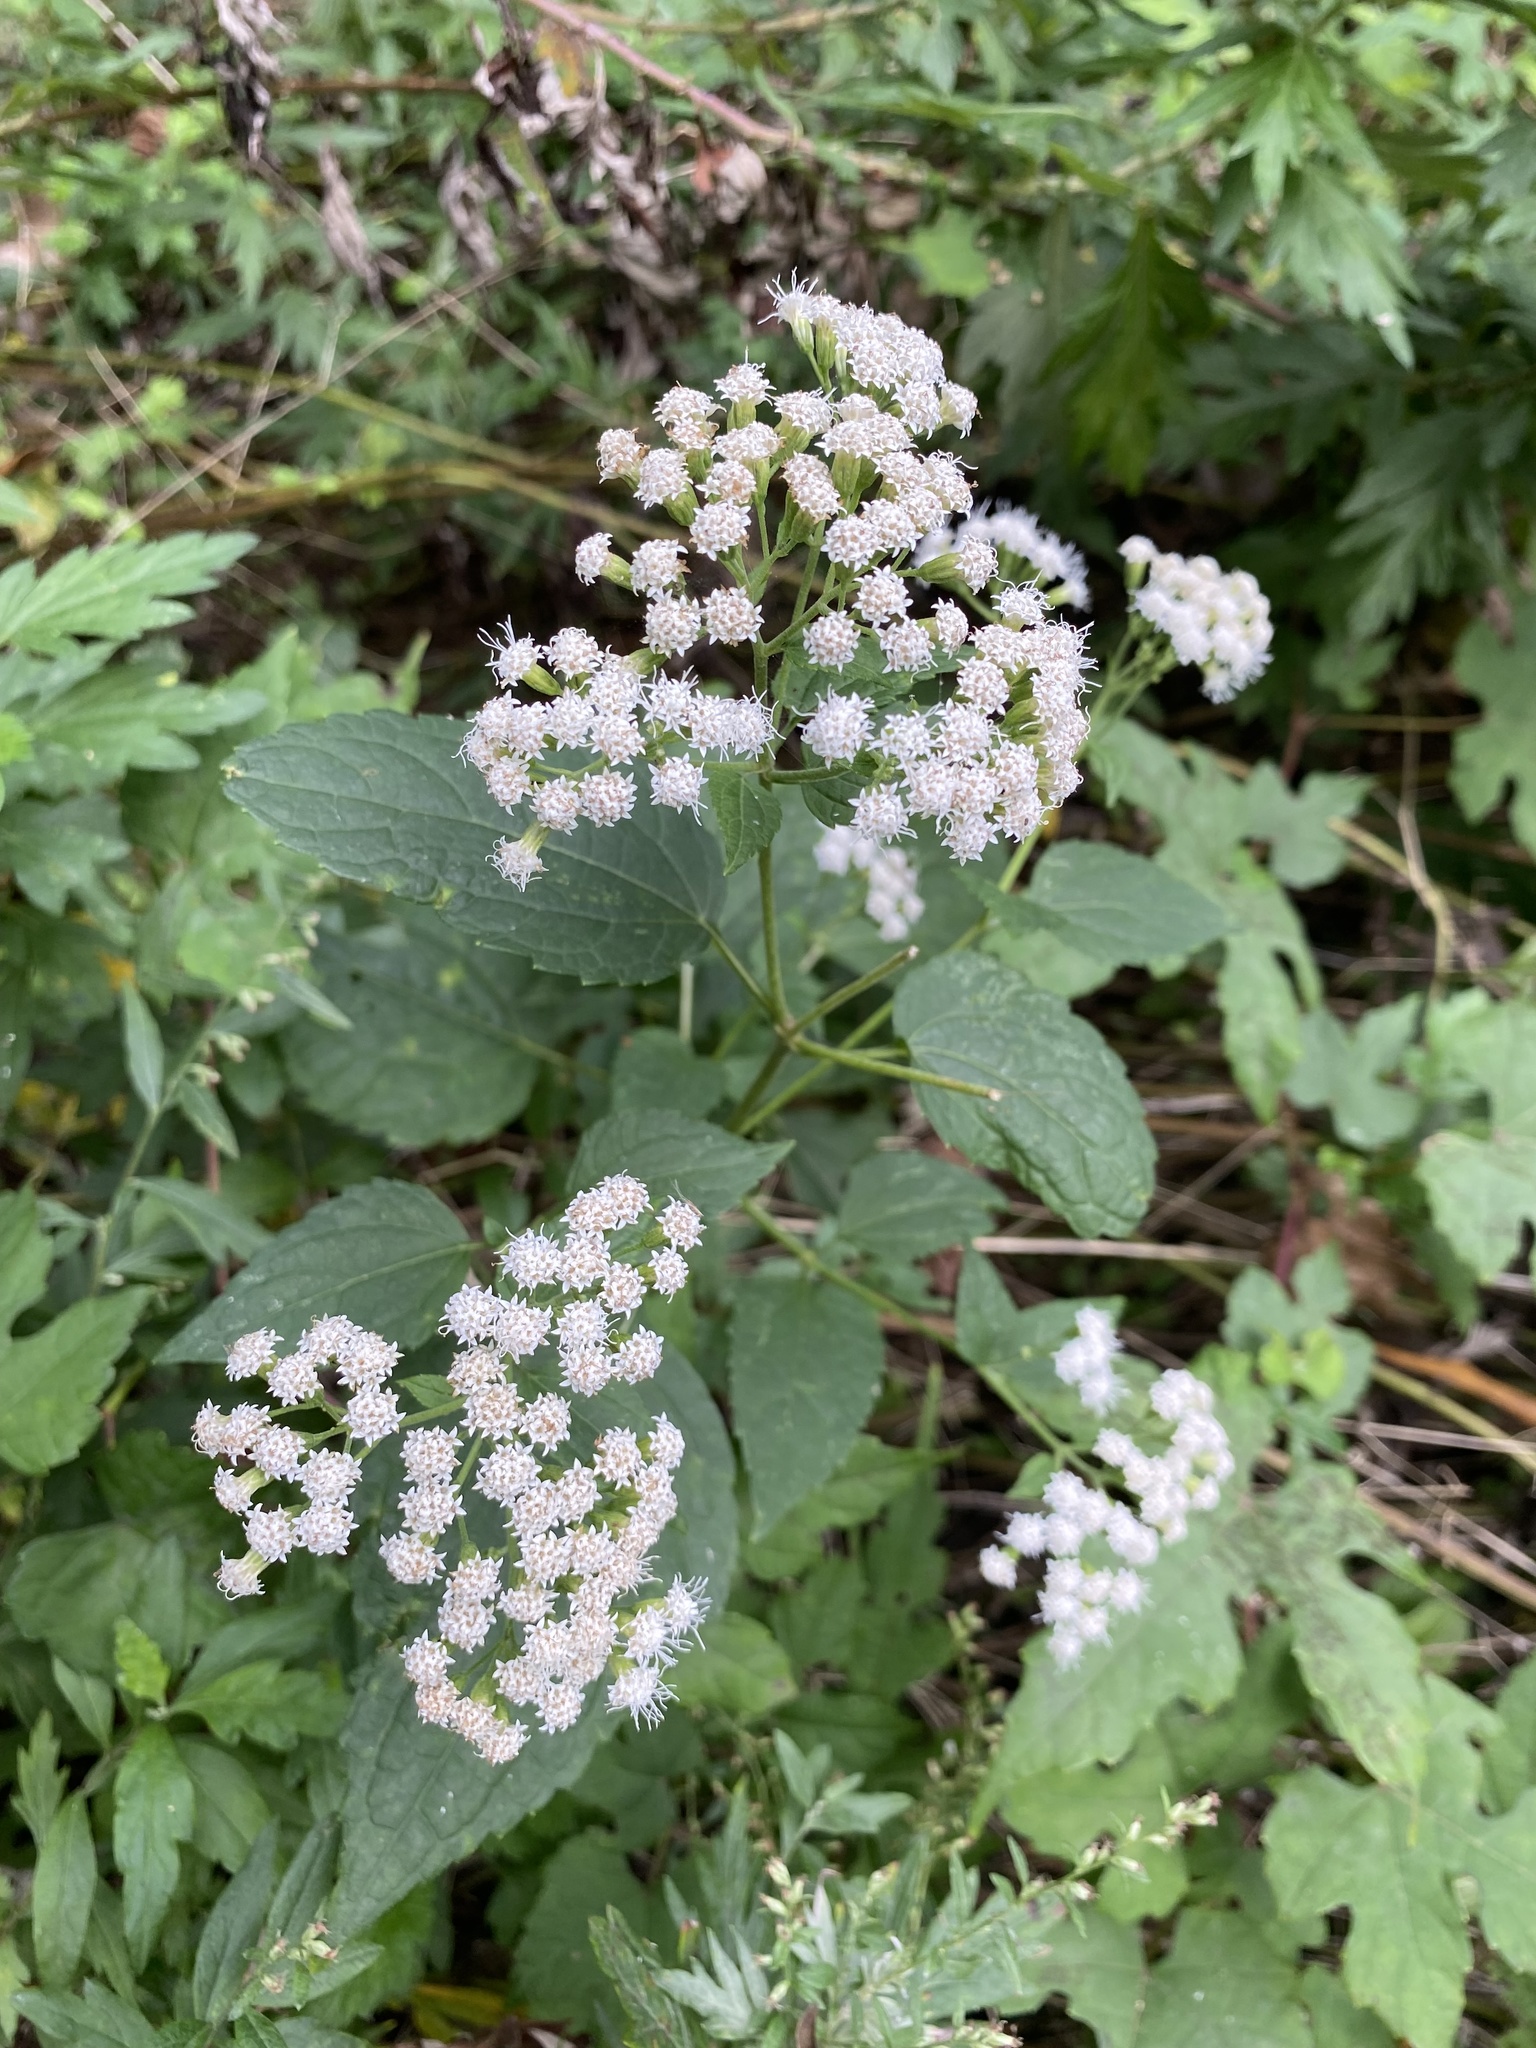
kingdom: Plantae
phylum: Tracheophyta
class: Magnoliopsida
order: Asterales
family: Asteraceae
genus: Ageratina
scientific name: Ageratina altissima
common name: White snakeroot
